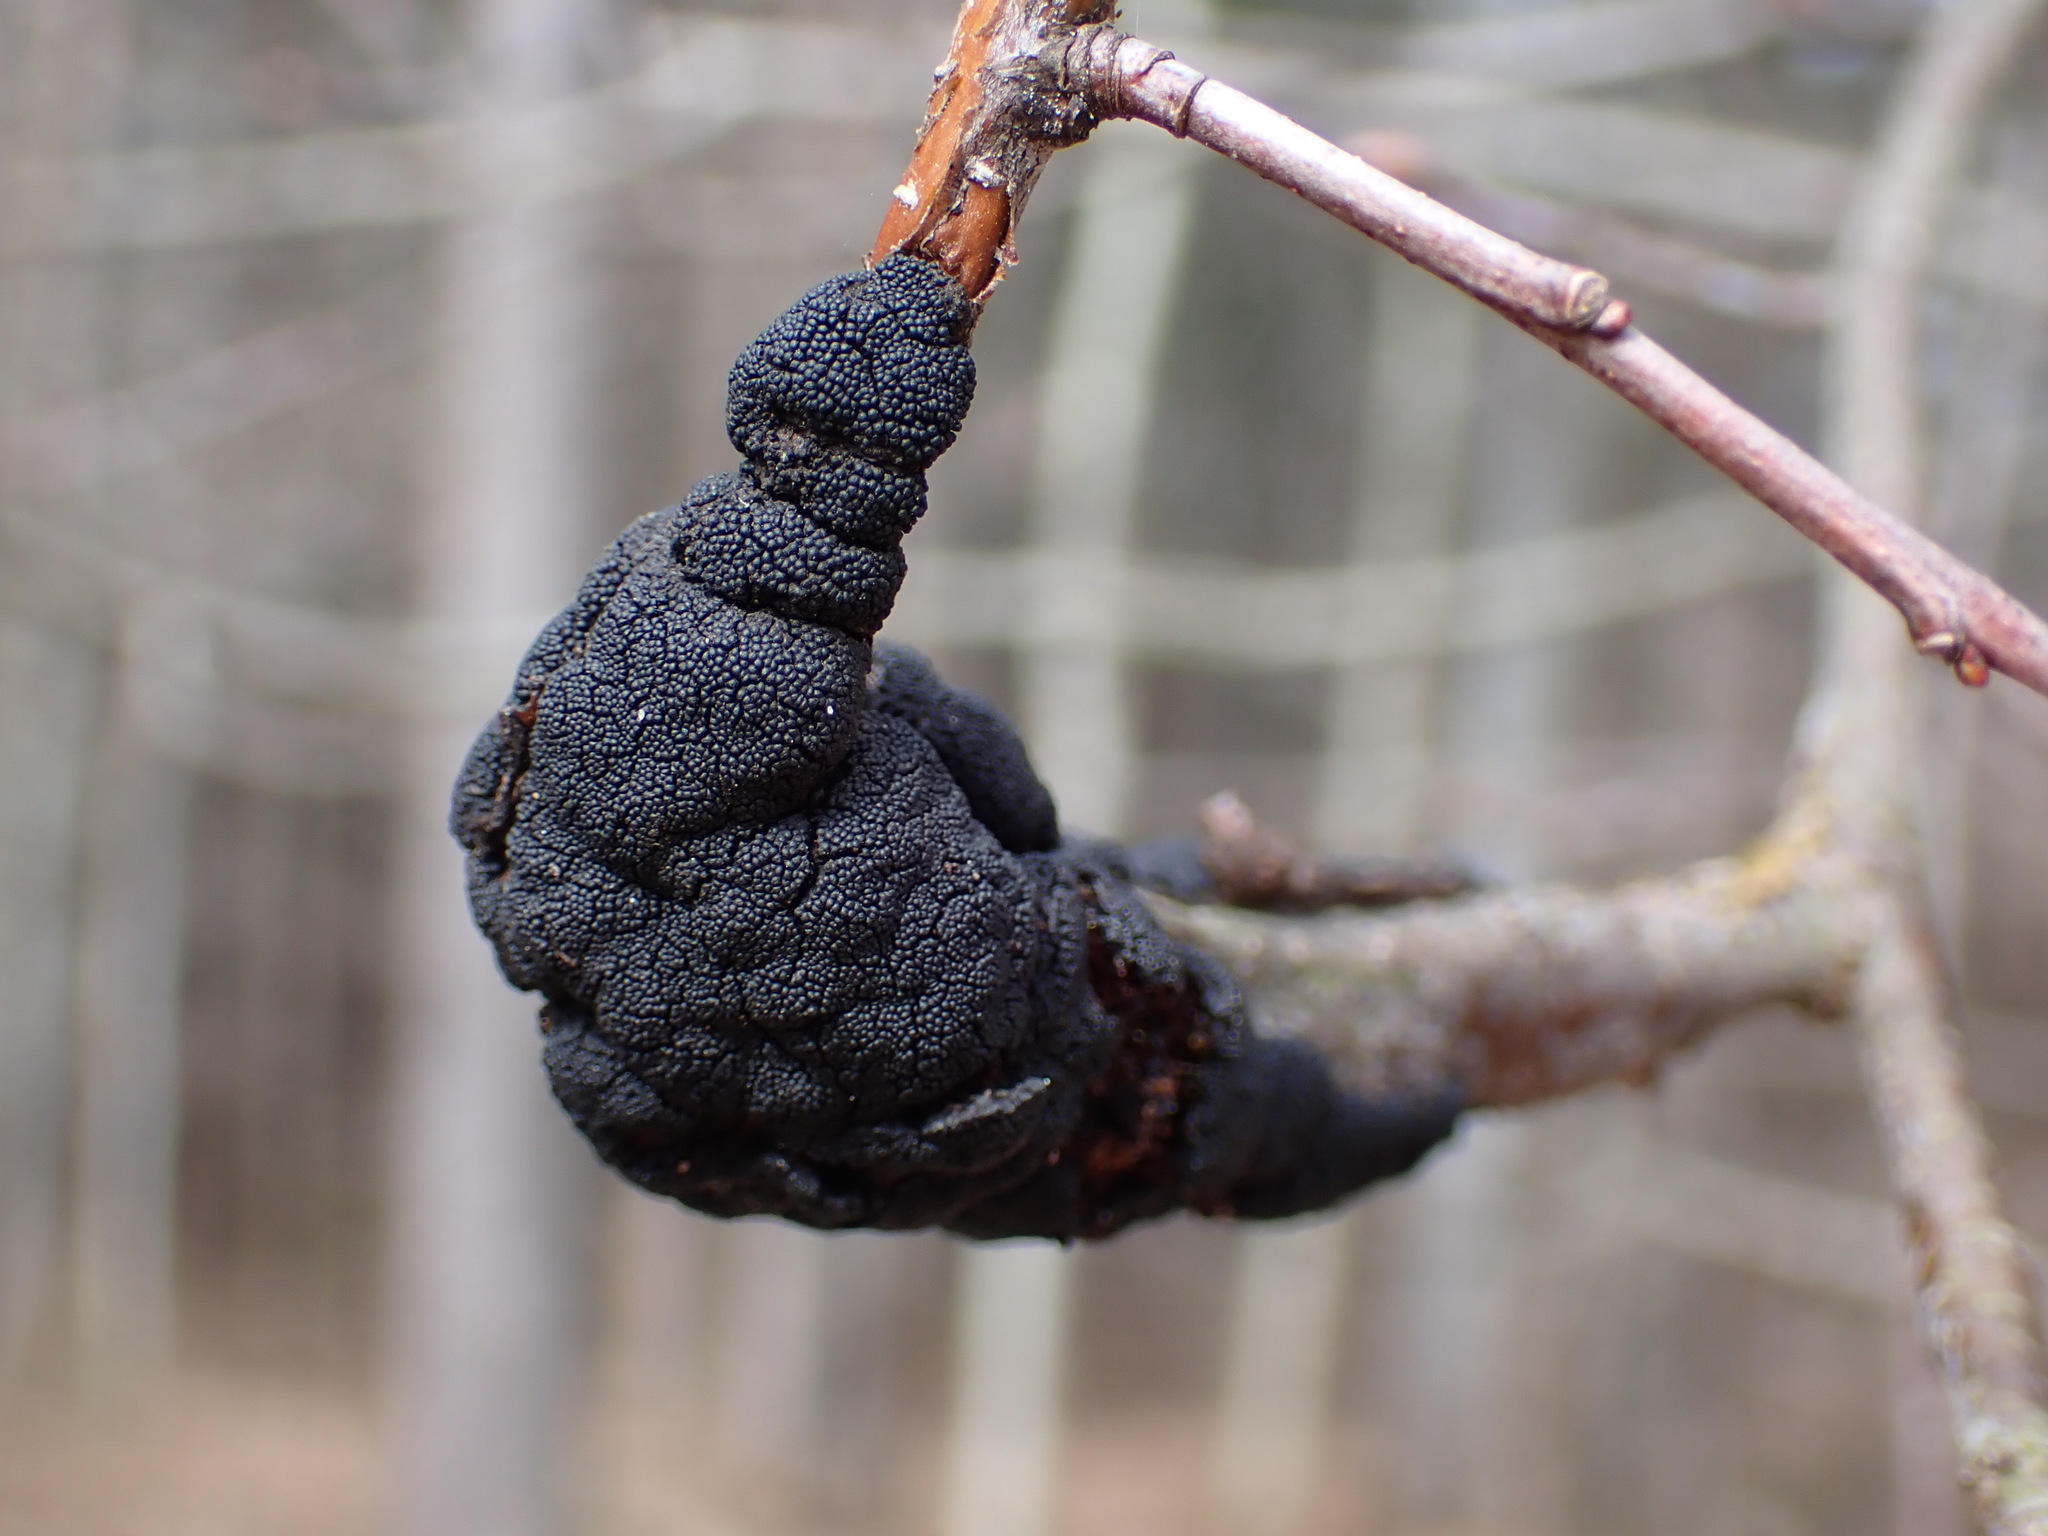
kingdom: Fungi
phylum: Ascomycota
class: Dothideomycetes
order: Venturiales
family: Venturiaceae
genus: Apiosporina
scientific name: Apiosporina morbosa
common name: Black knot
